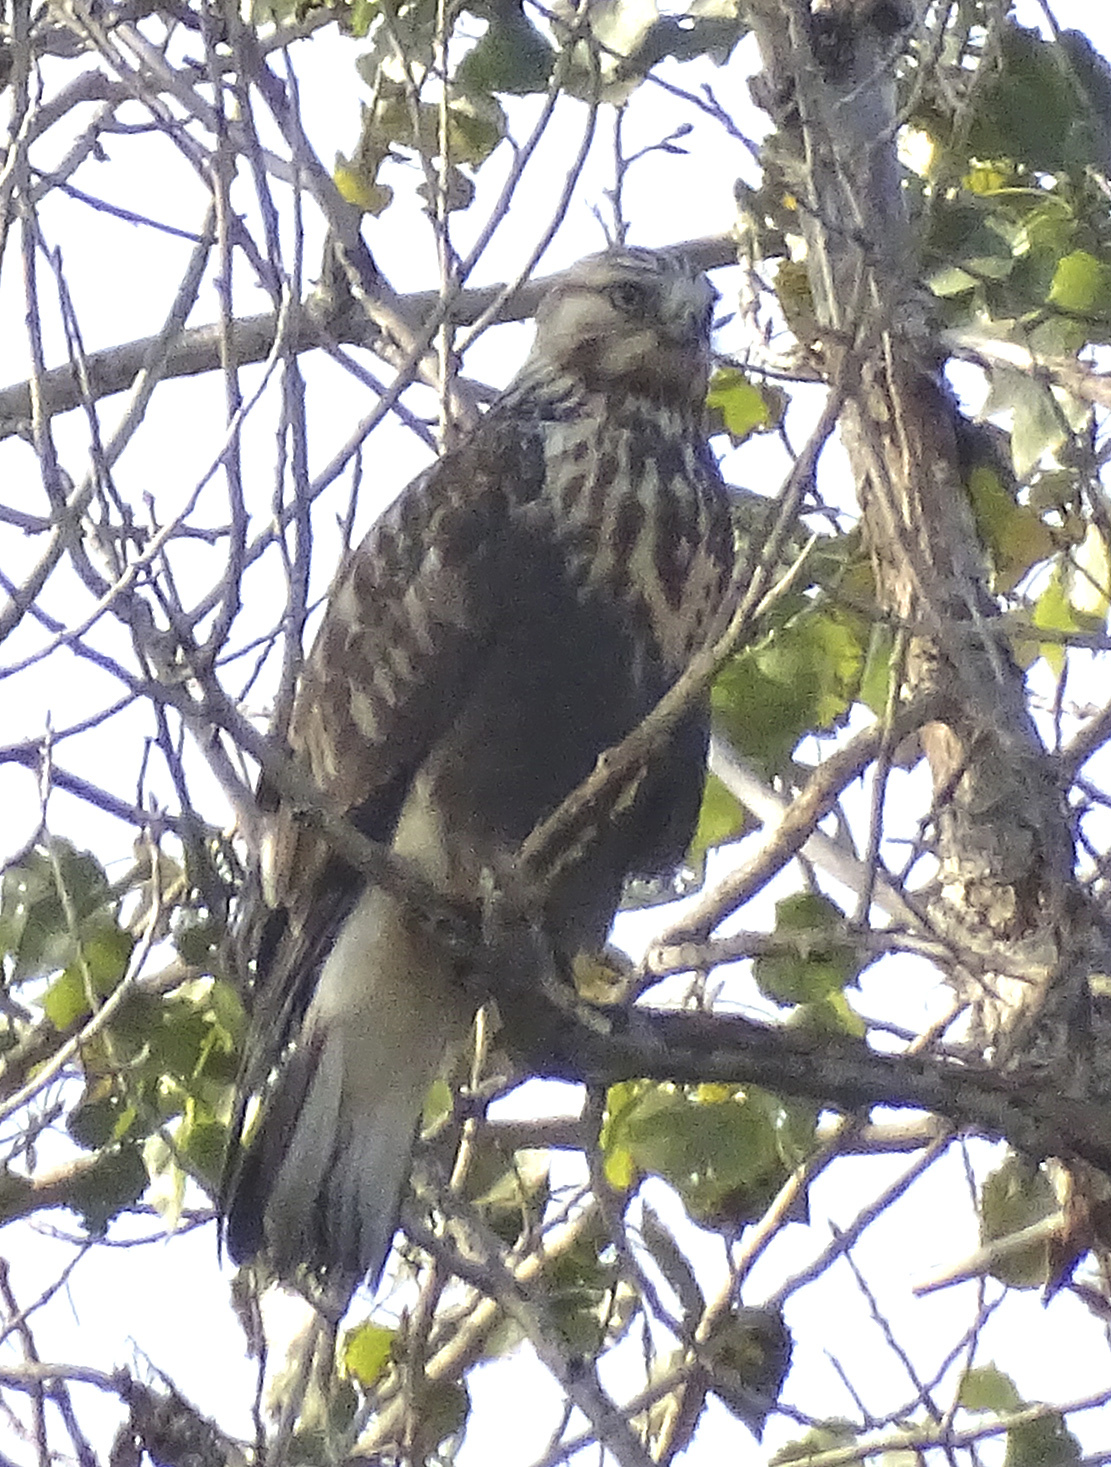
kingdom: Animalia
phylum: Chordata
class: Aves
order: Accipitriformes
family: Accipitridae
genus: Buteo
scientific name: Buteo lagopus
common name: Rough-legged buzzard
